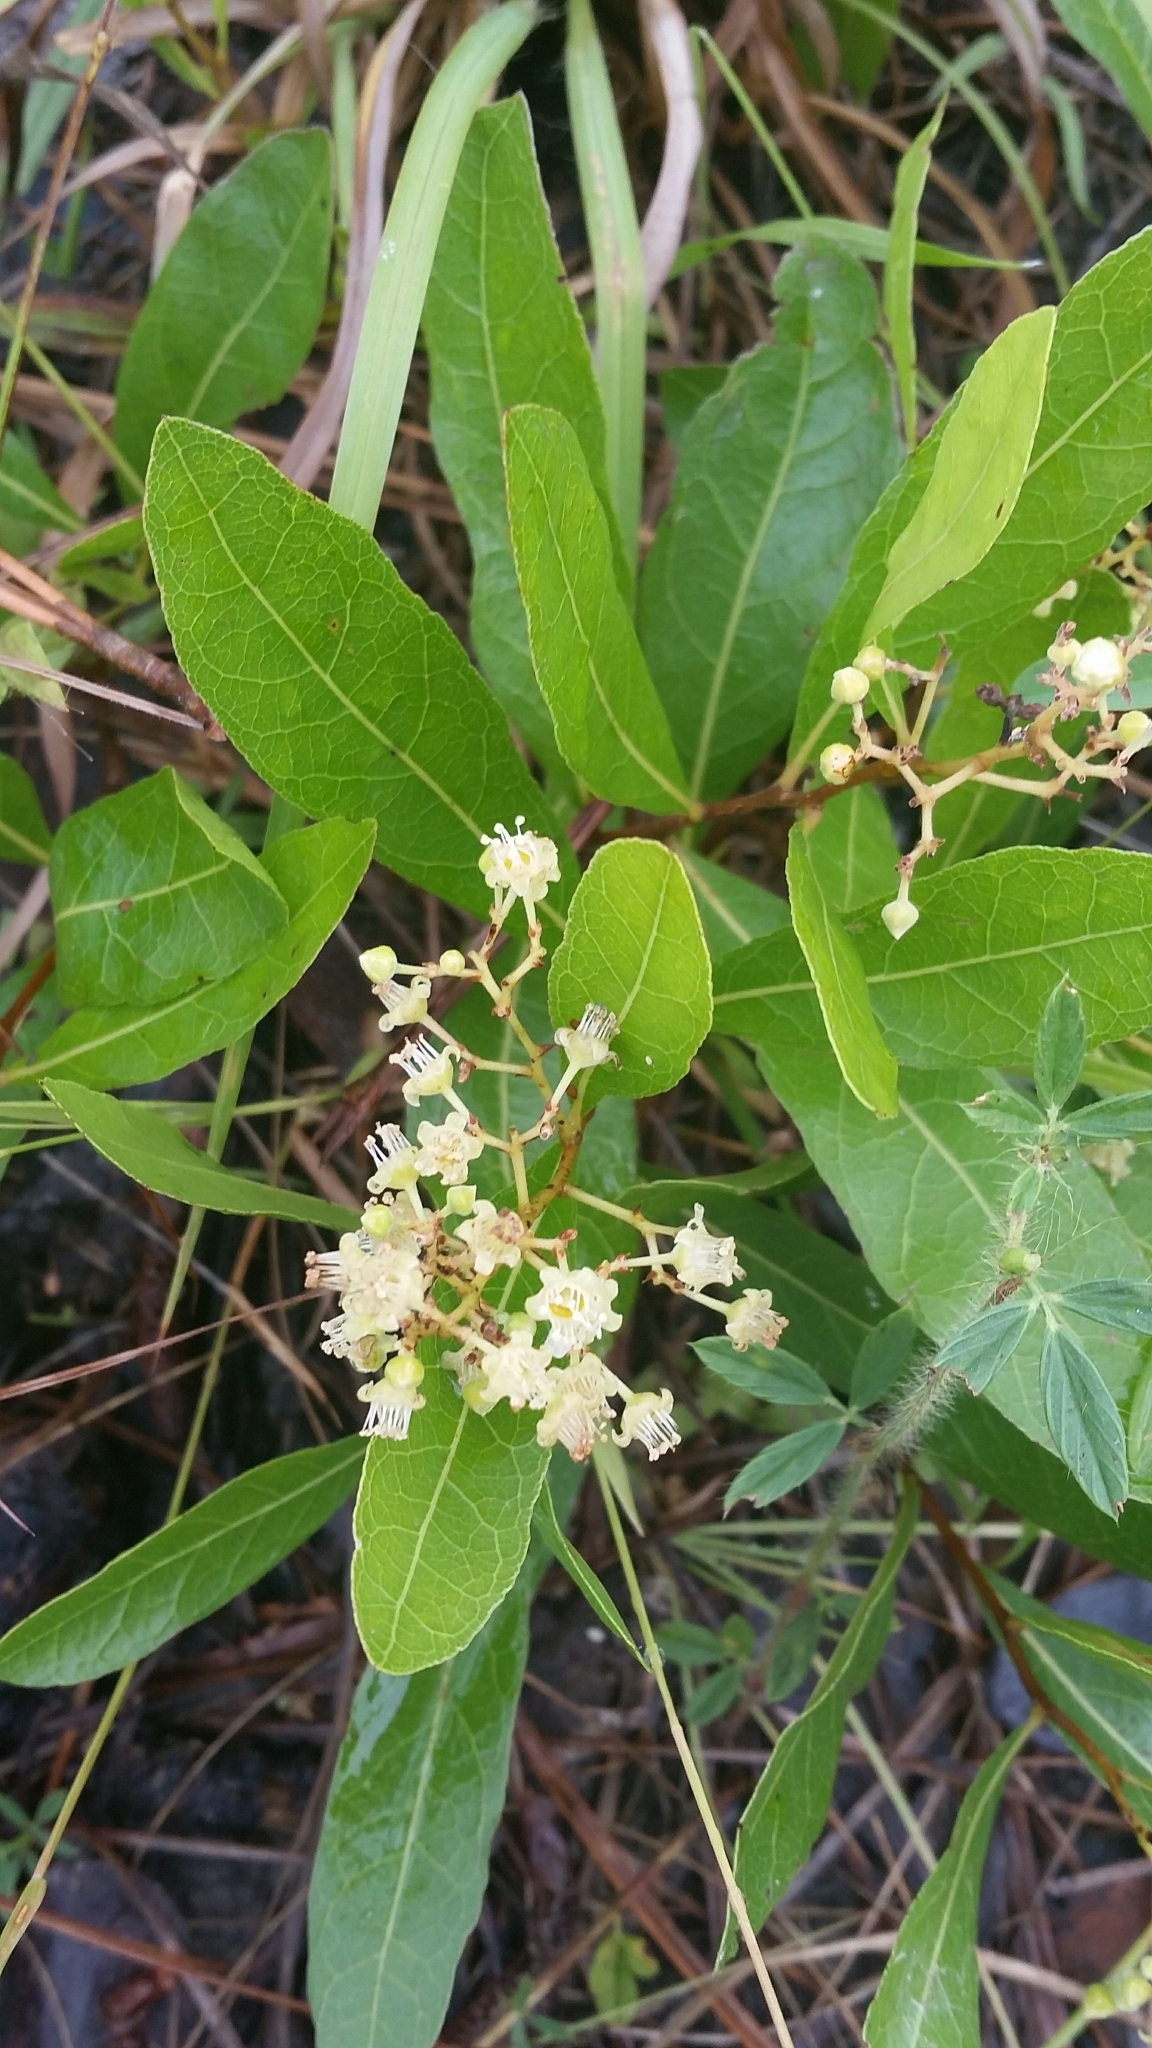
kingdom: Plantae
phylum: Tracheophyta
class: Magnoliopsida
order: Malpighiales
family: Chrysobalanaceae
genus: Geobalanus
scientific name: Geobalanus oblongifolius
